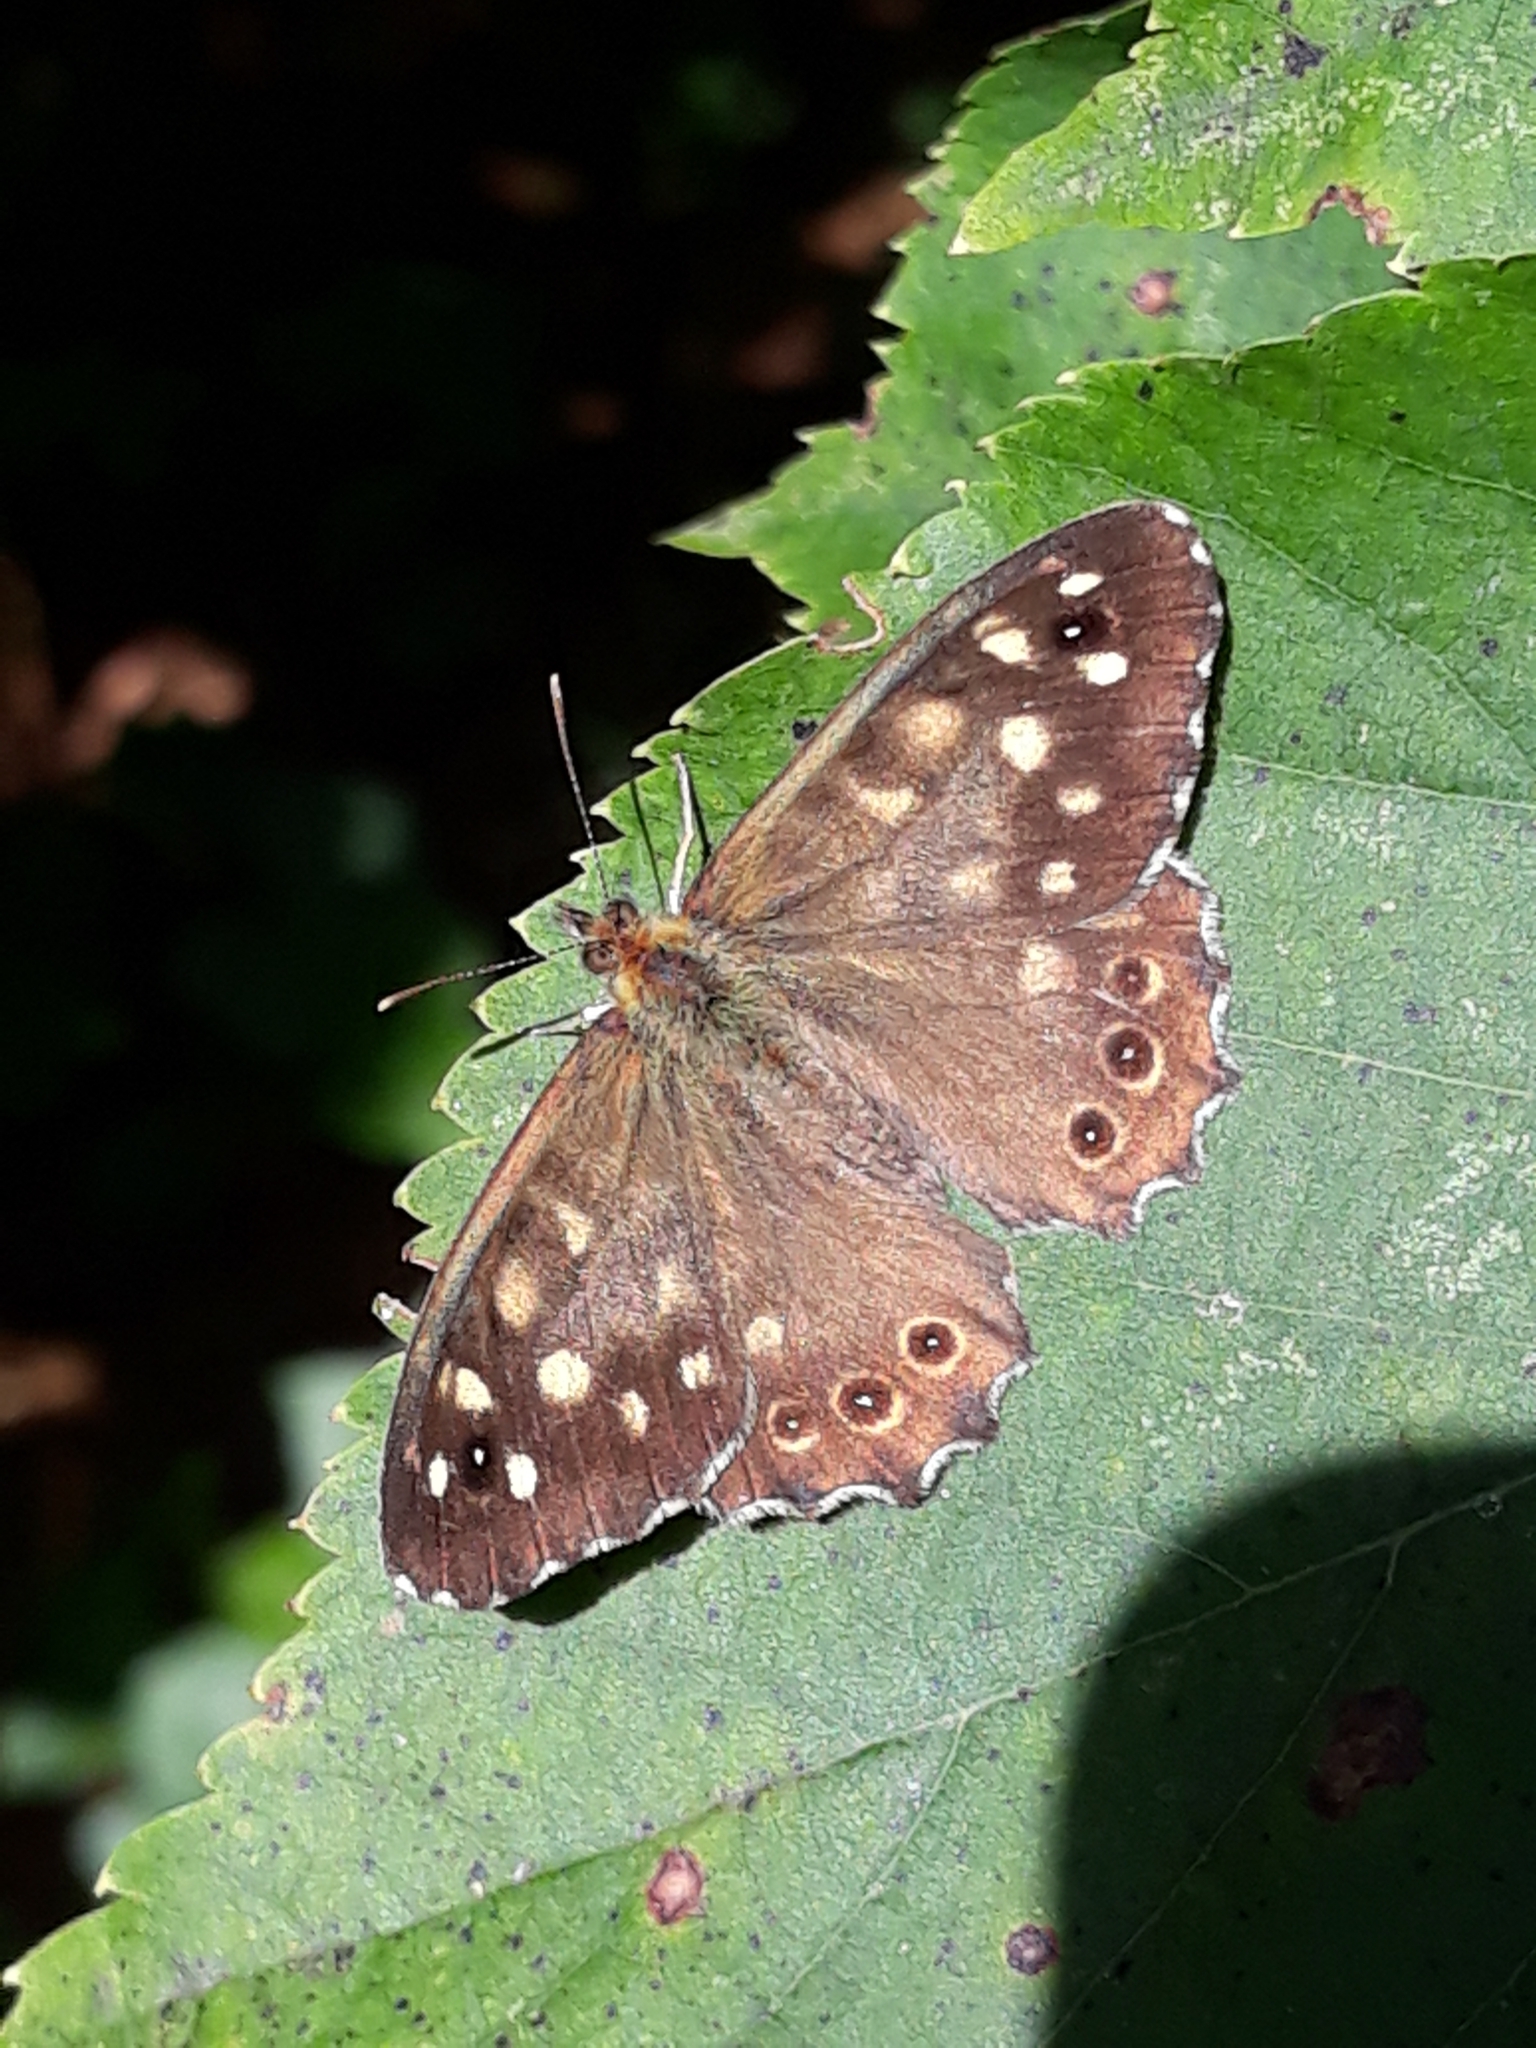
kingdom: Animalia
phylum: Arthropoda
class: Insecta
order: Lepidoptera
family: Nymphalidae
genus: Pararge
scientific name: Pararge aegeria
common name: Speckled wood
